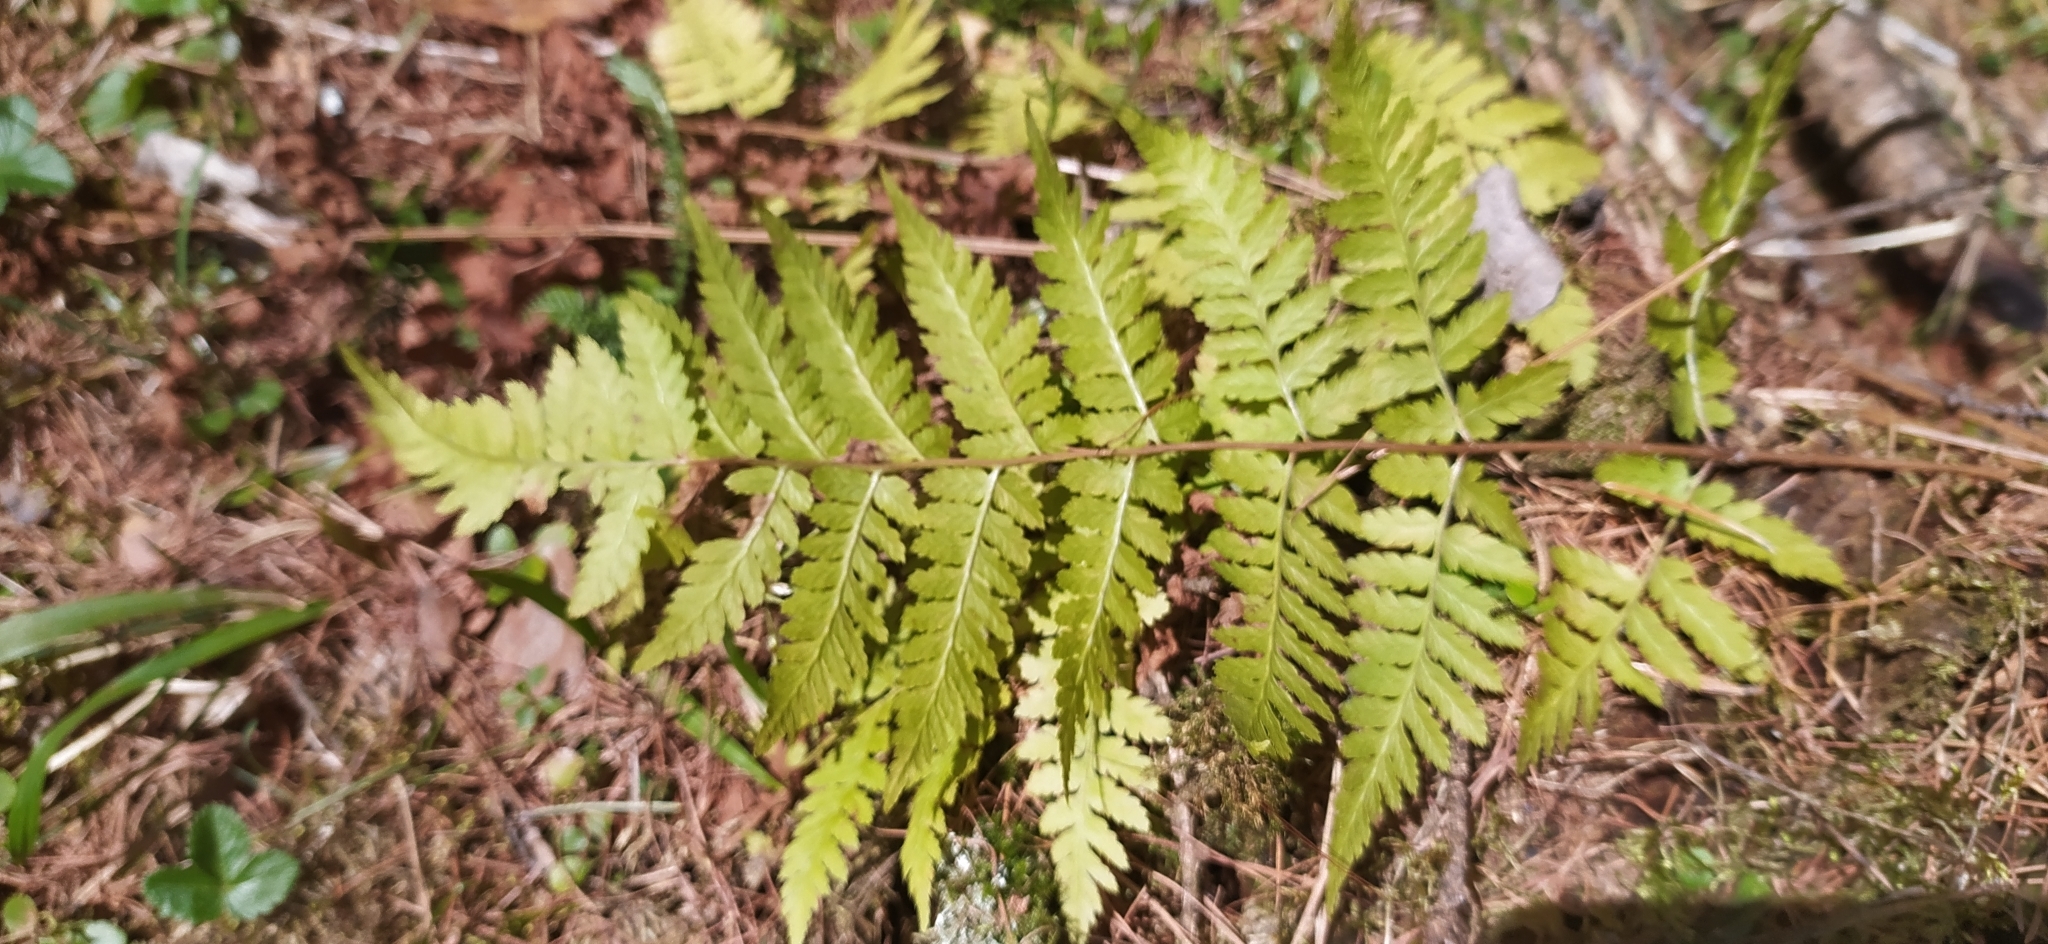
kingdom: Plantae
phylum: Tracheophyta
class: Polypodiopsida
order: Polypodiales
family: Dryopteridaceae
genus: Dryopteris
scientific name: Dryopteris carthusiana
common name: Narrow buckler-fern
